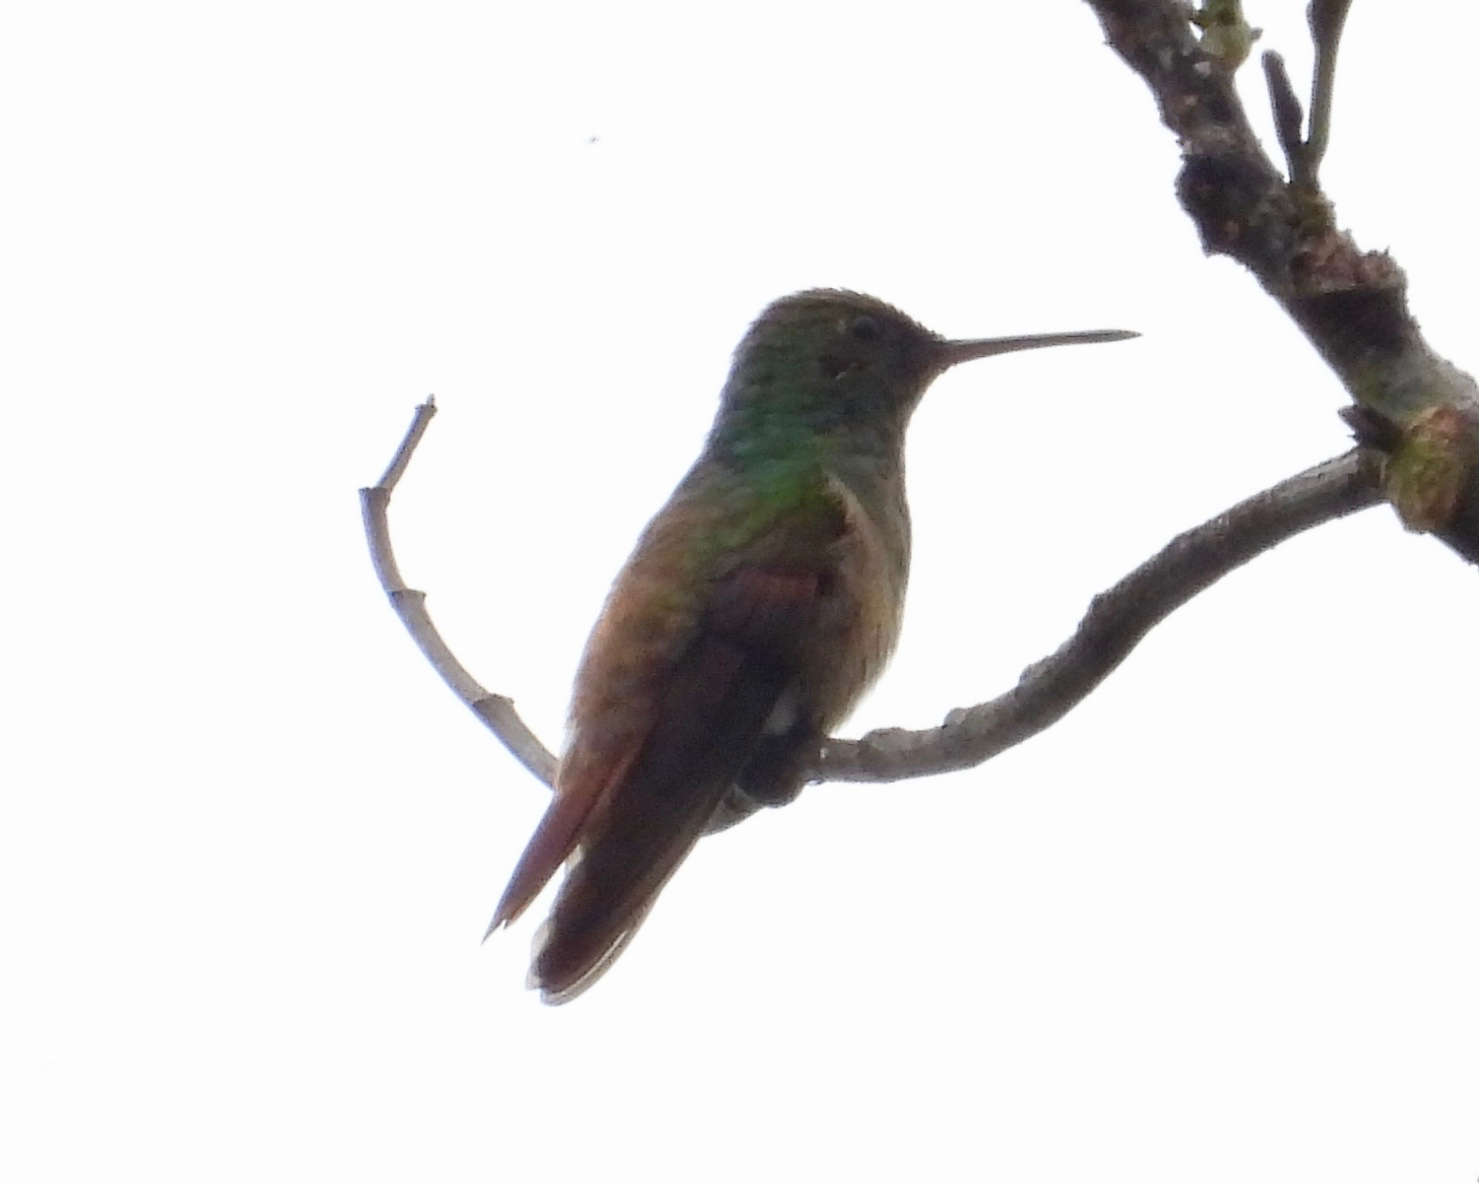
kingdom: Animalia
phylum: Chordata
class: Aves
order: Apodiformes
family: Trochilidae
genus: Saucerottia
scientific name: Saucerottia beryllina
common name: Berylline hummingbird
